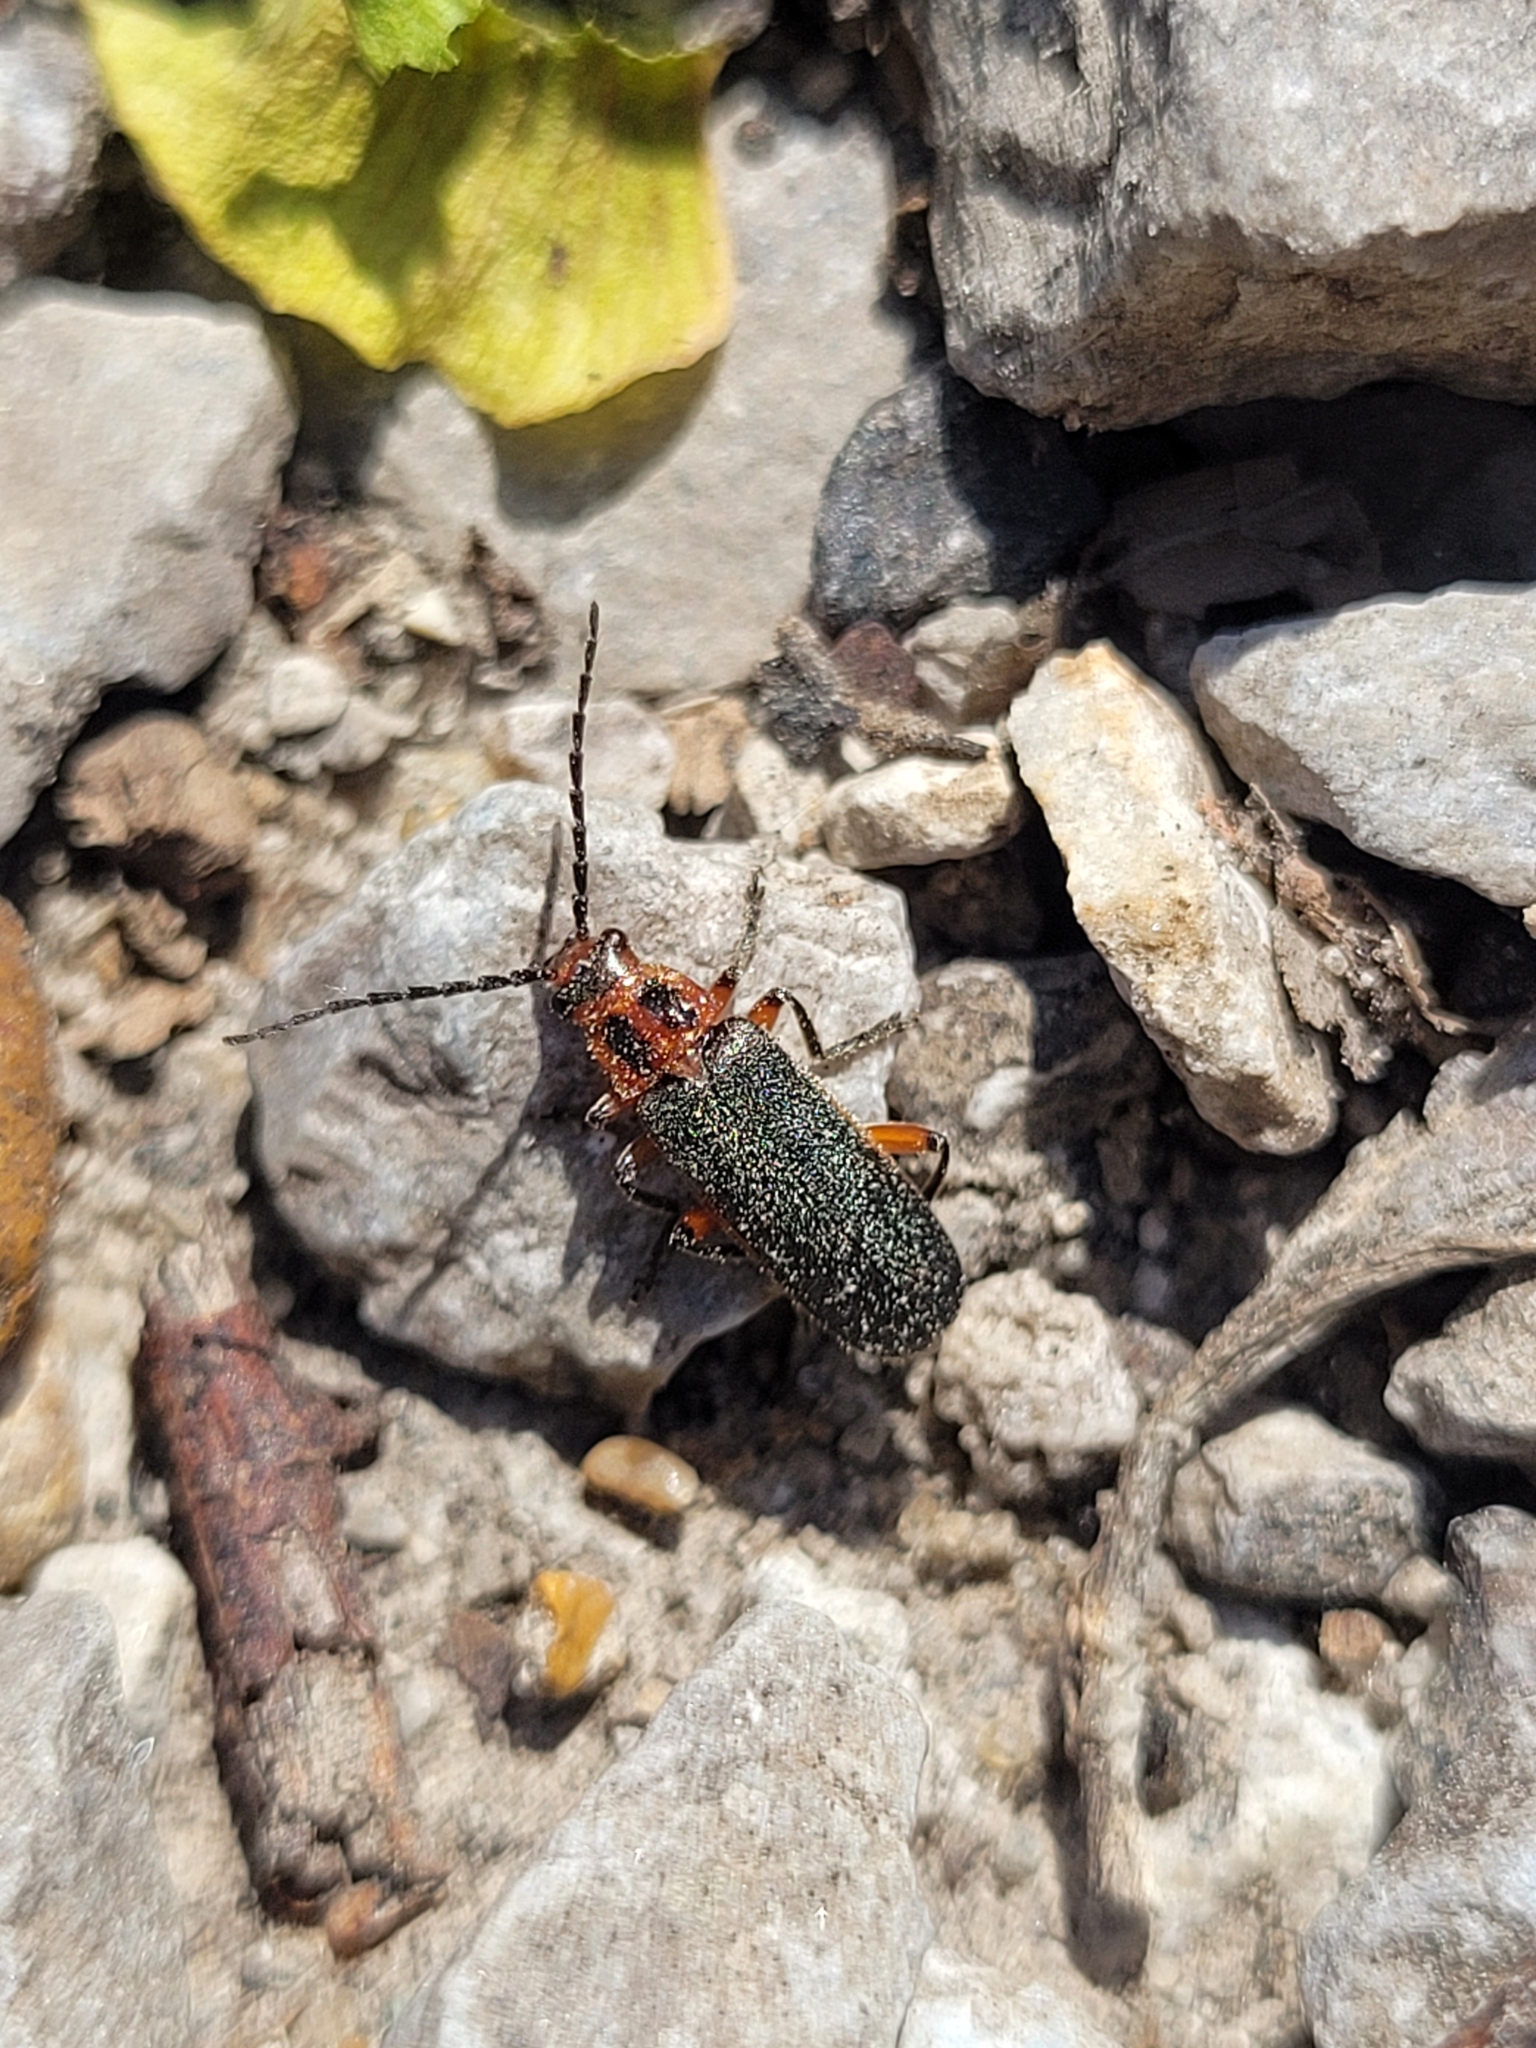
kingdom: Animalia
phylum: Arthropoda
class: Insecta
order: Coleoptera
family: Cantharidae
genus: Atalantycha
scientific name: Atalantycha bilineata
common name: Two-lined leatherwing
